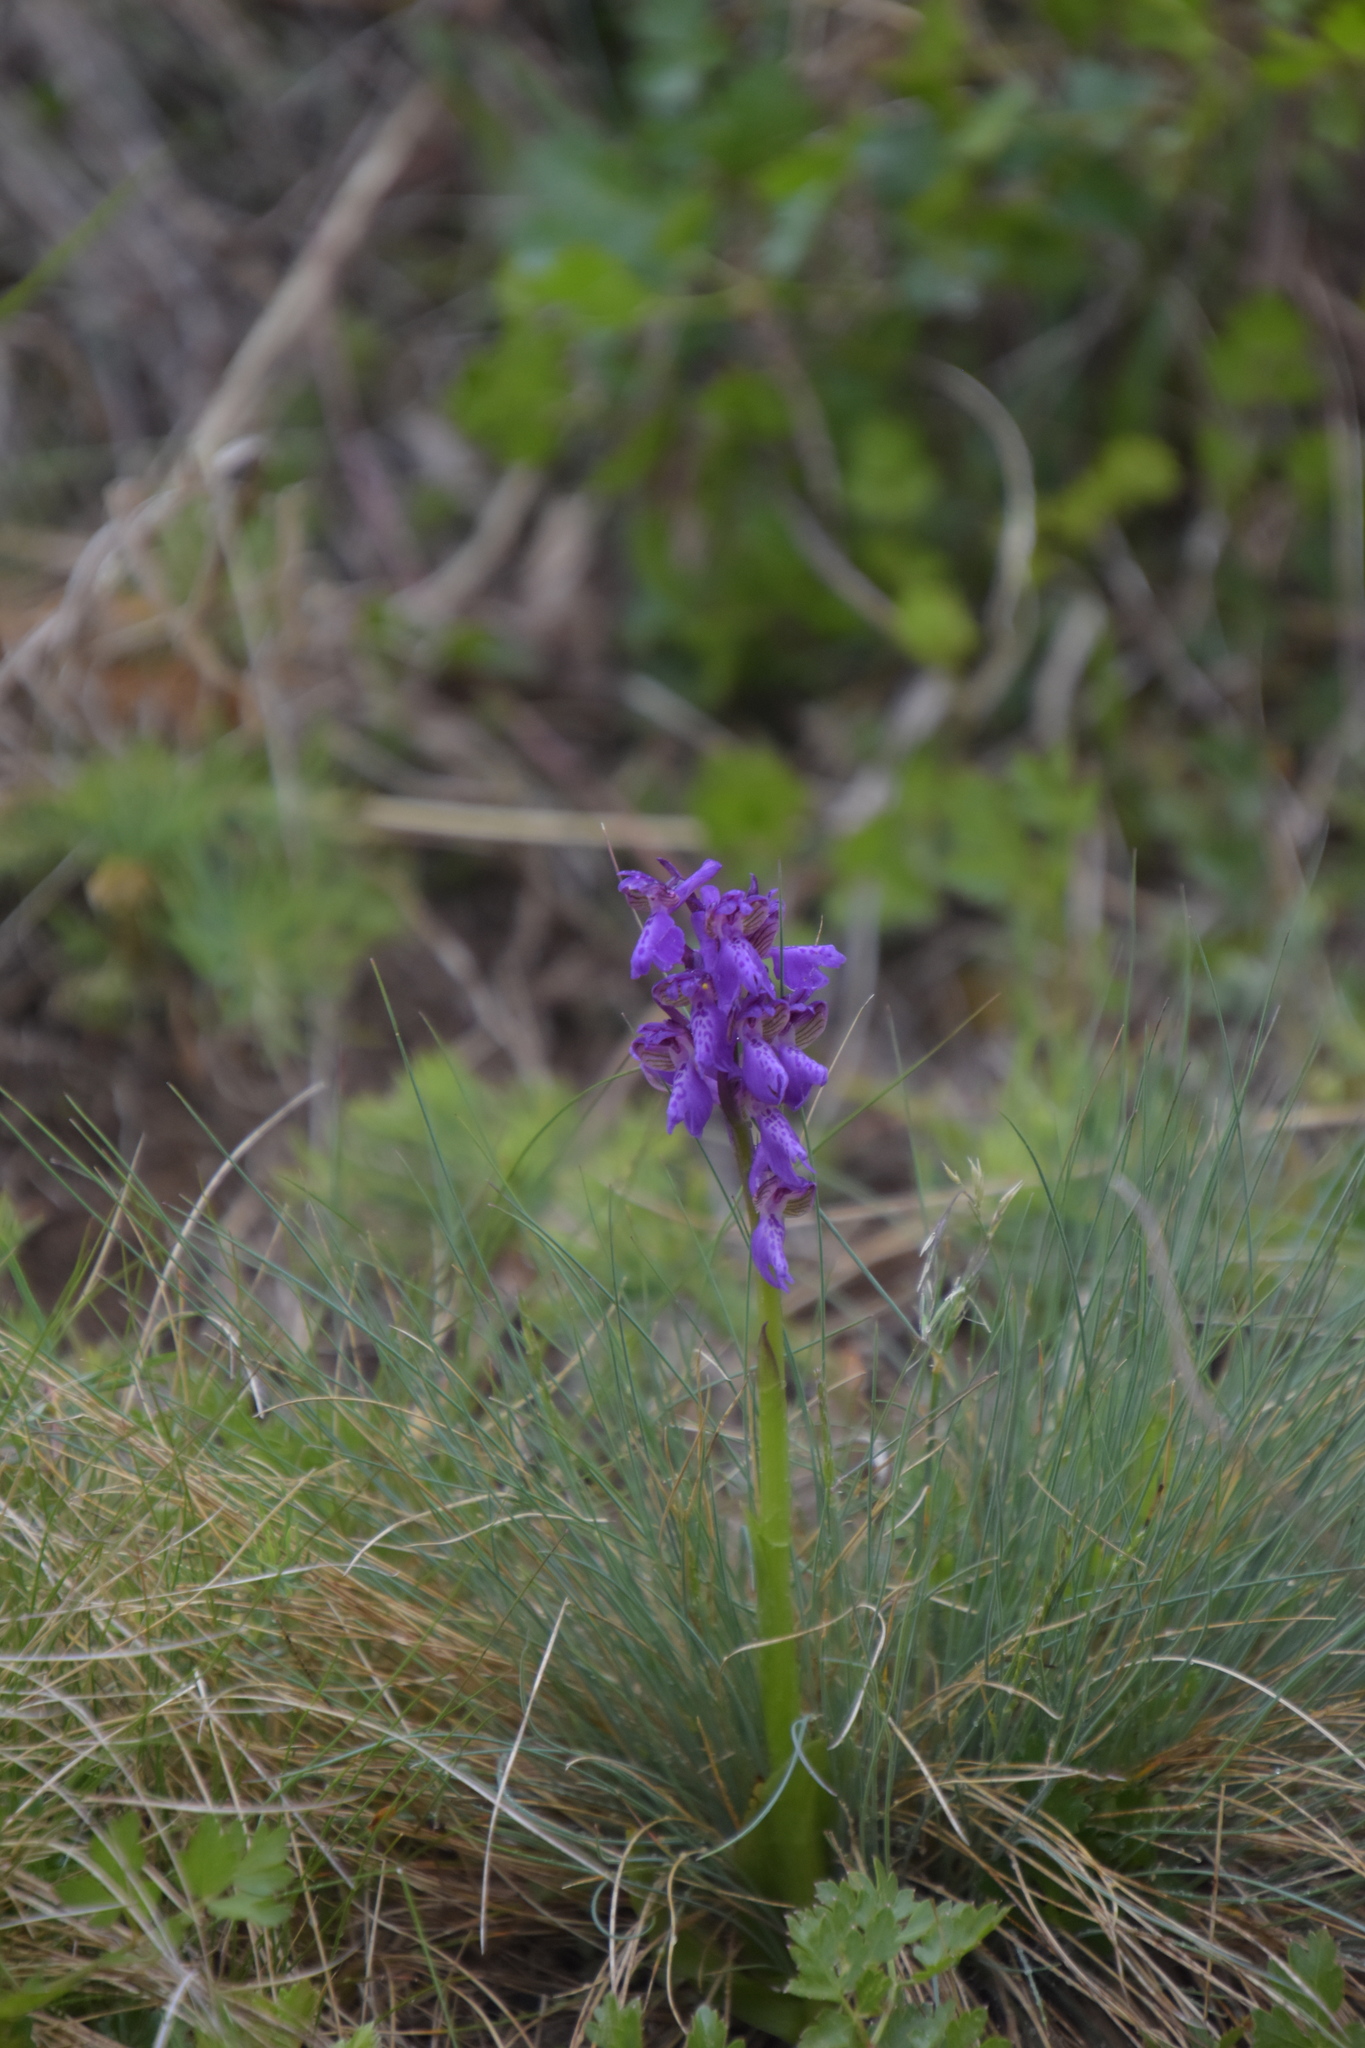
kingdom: Plantae
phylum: Tracheophyta
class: Liliopsida
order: Asparagales
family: Orchidaceae
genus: Anacamptis
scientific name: Anacamptis morio
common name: Green-winged orchid
